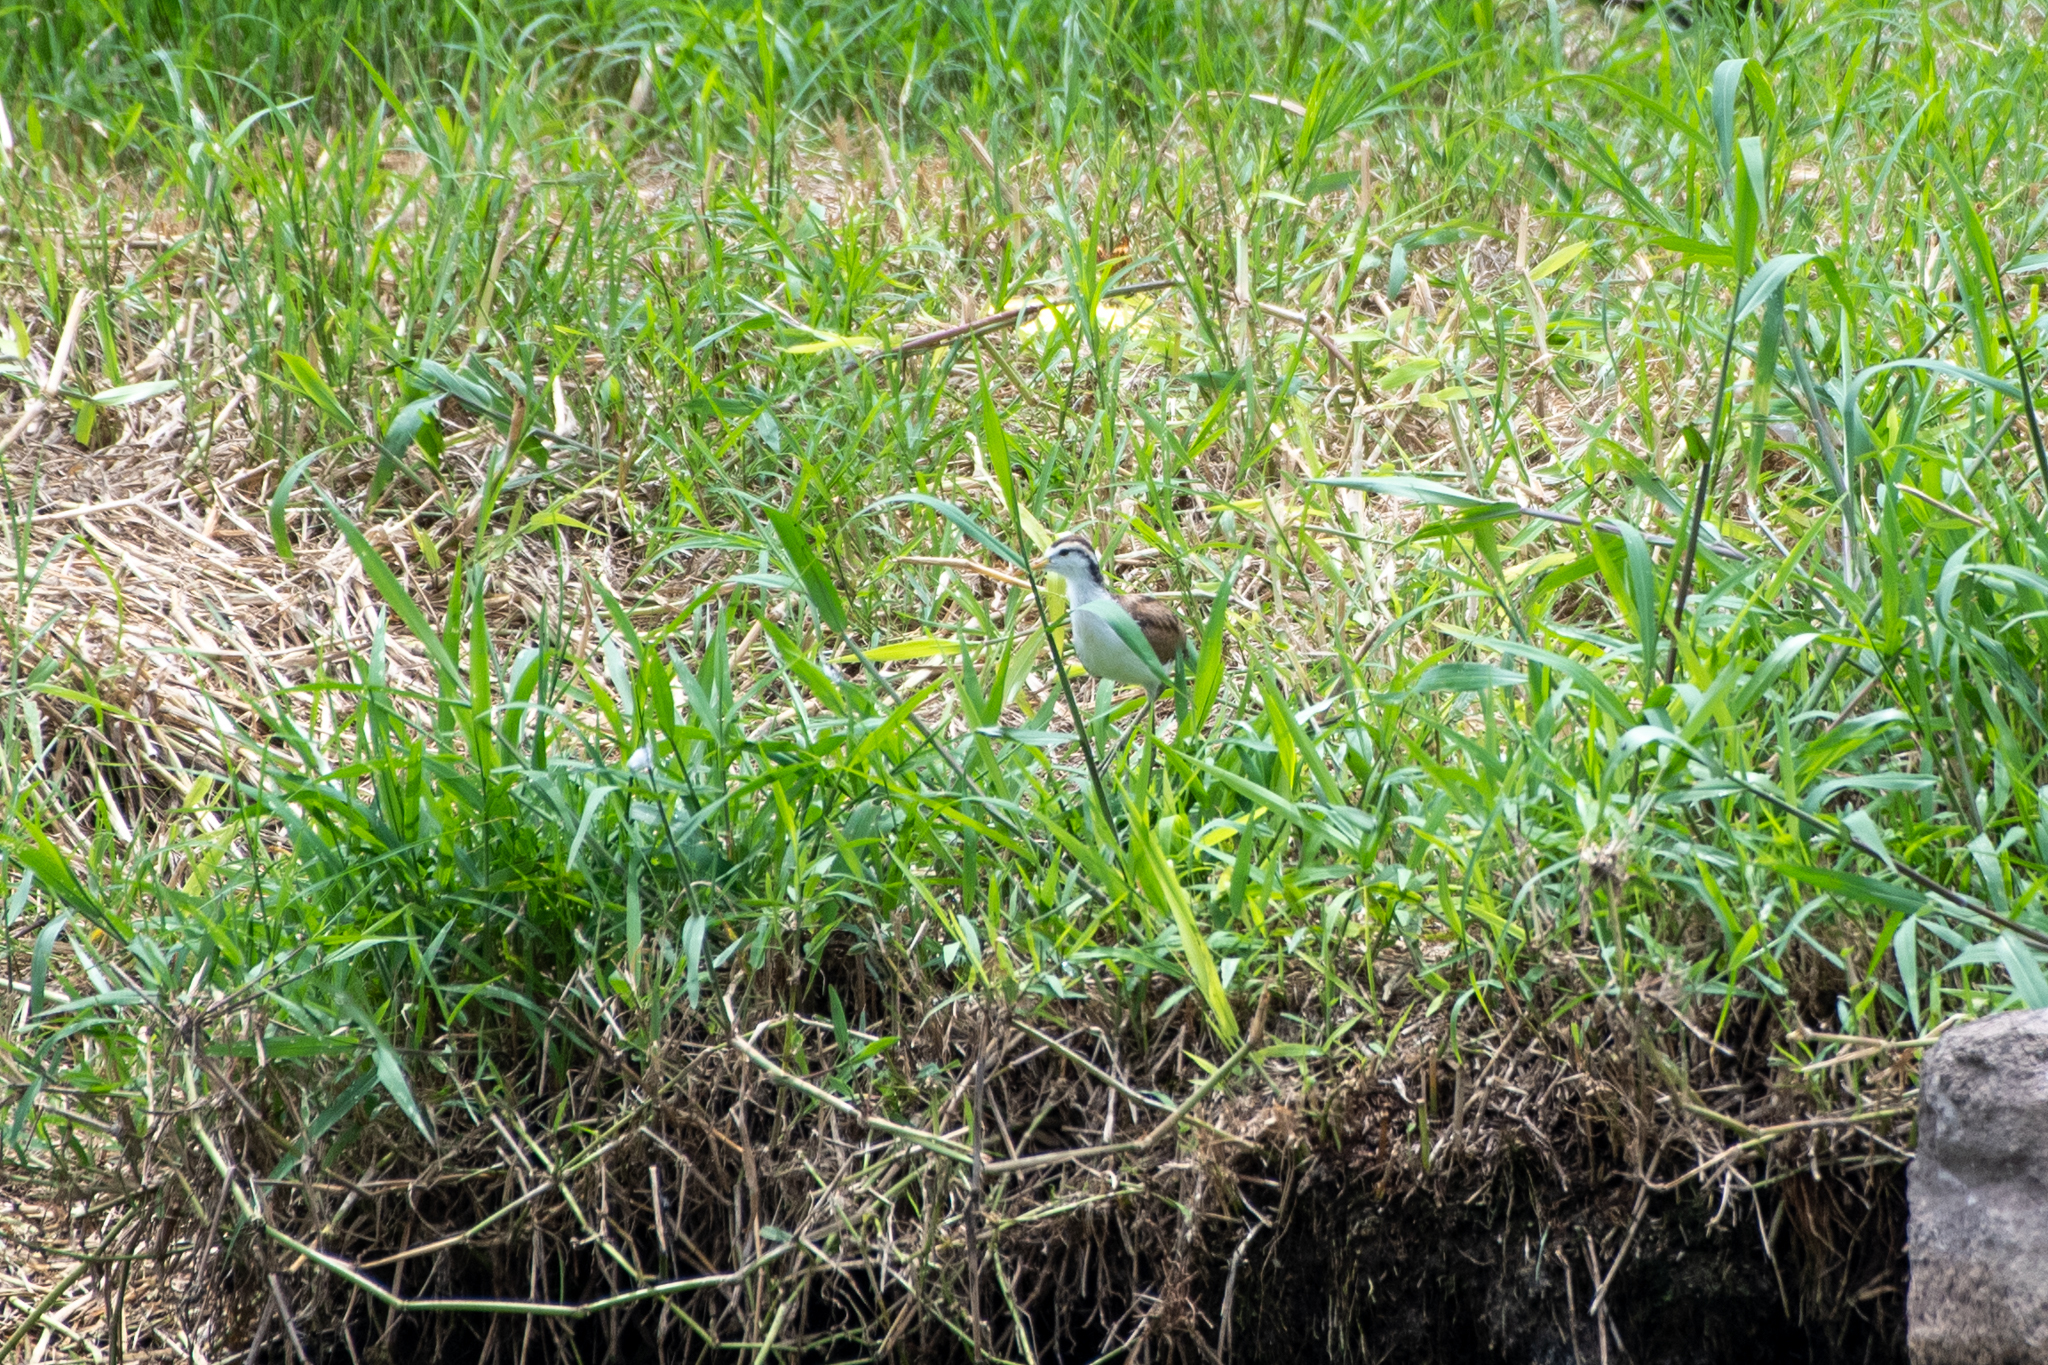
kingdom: Animalia
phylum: Chordata
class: Aves
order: Charadriiformes
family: Jacanidae
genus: Jacana
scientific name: Jacana spinosa
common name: Northern jacana
